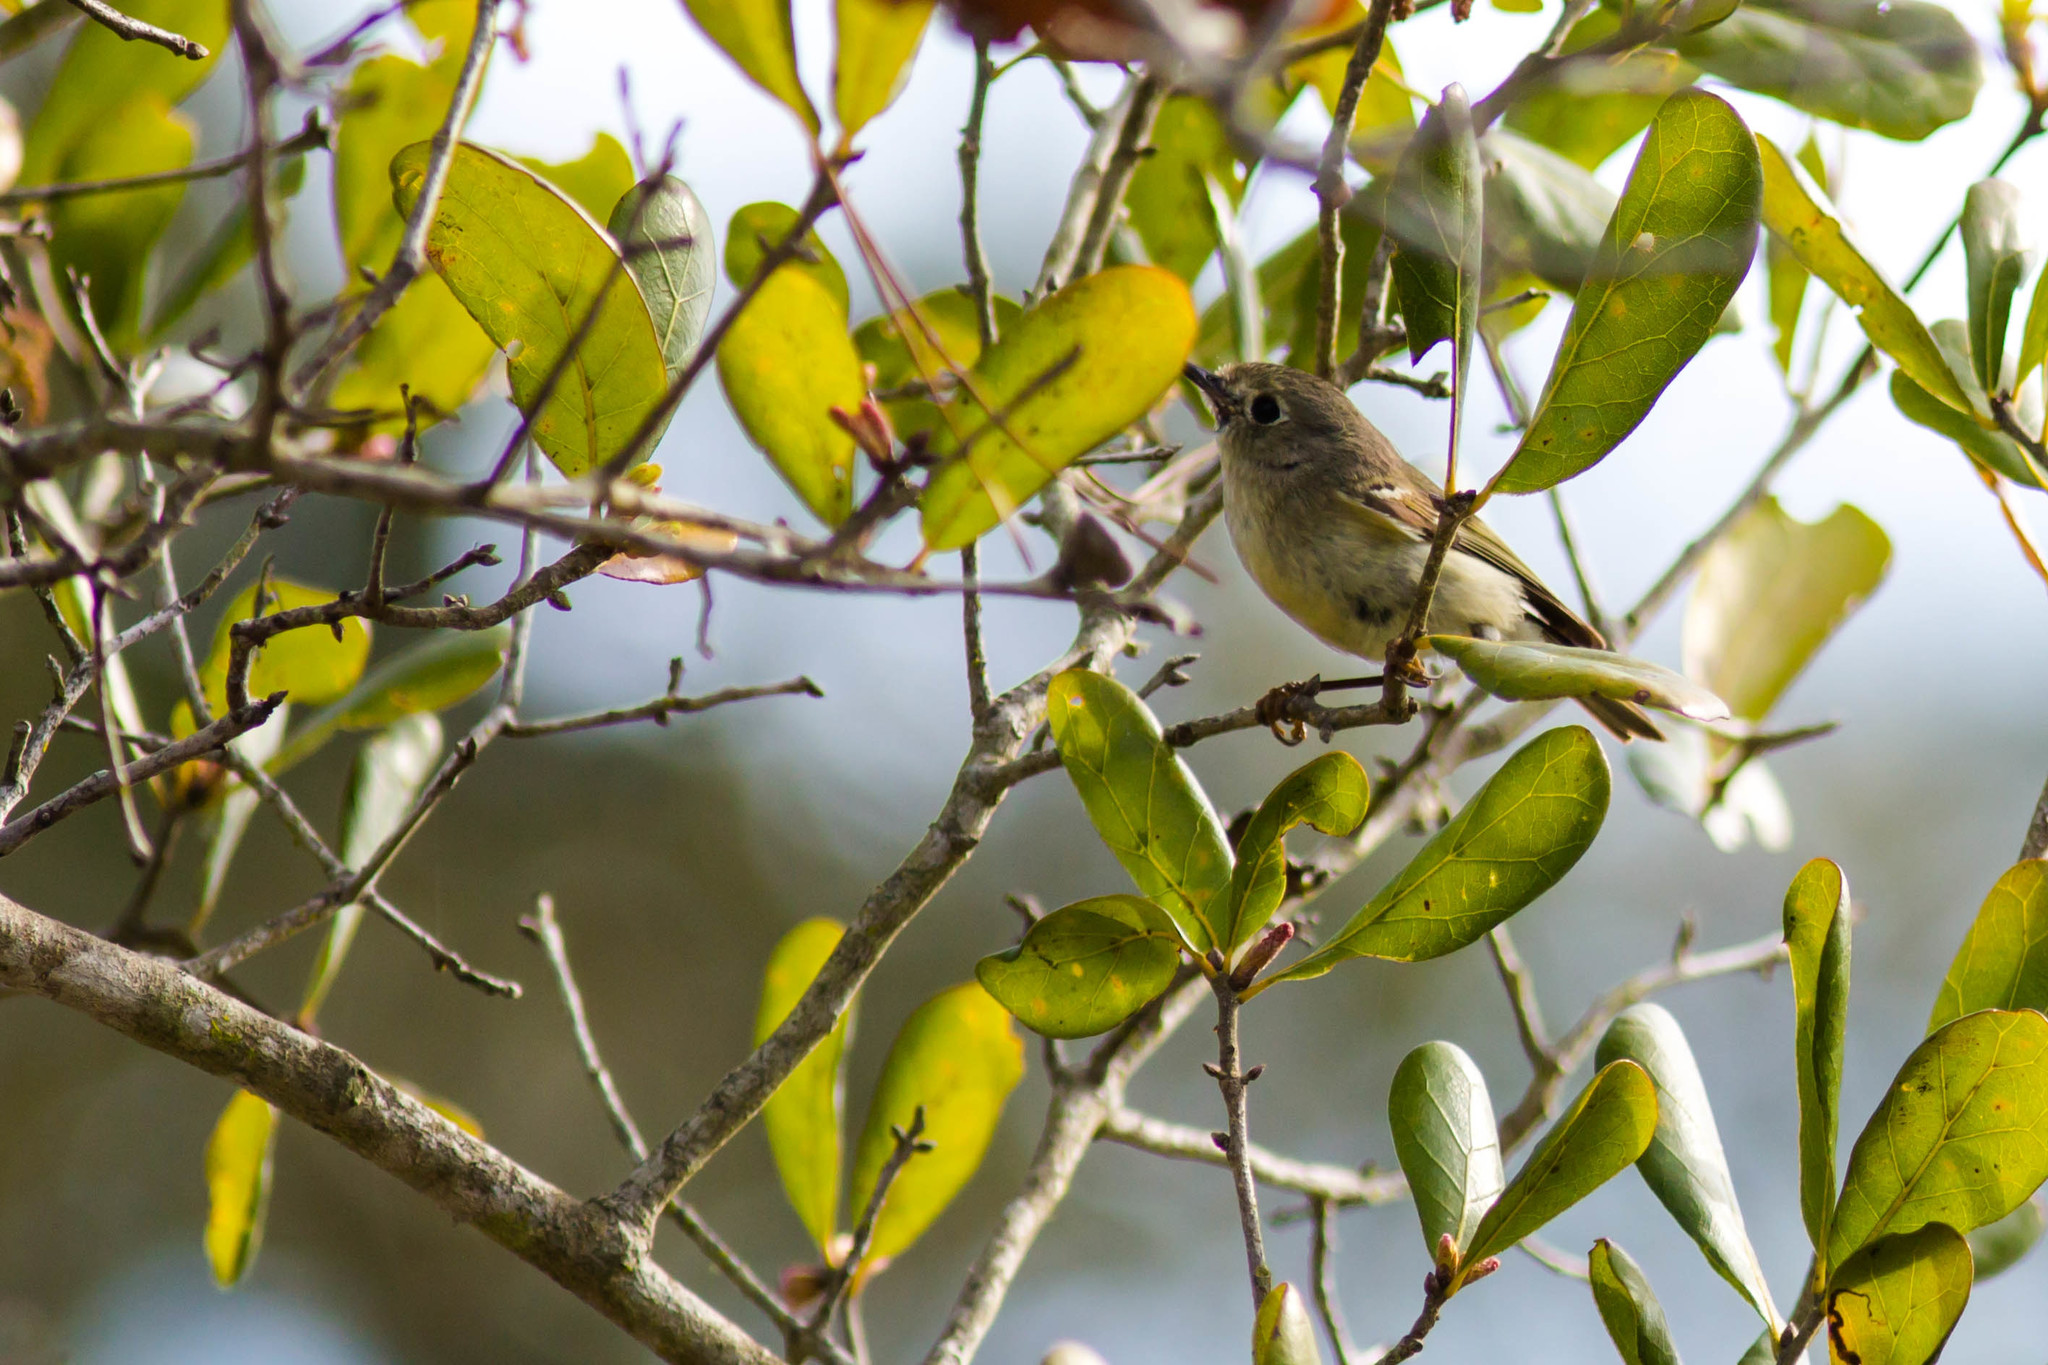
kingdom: Animalia
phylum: Chordata
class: Aves
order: Passeriformes
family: Regulidae
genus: Regulus
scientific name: Regulus calendula
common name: Ruby-crowned kinglet
